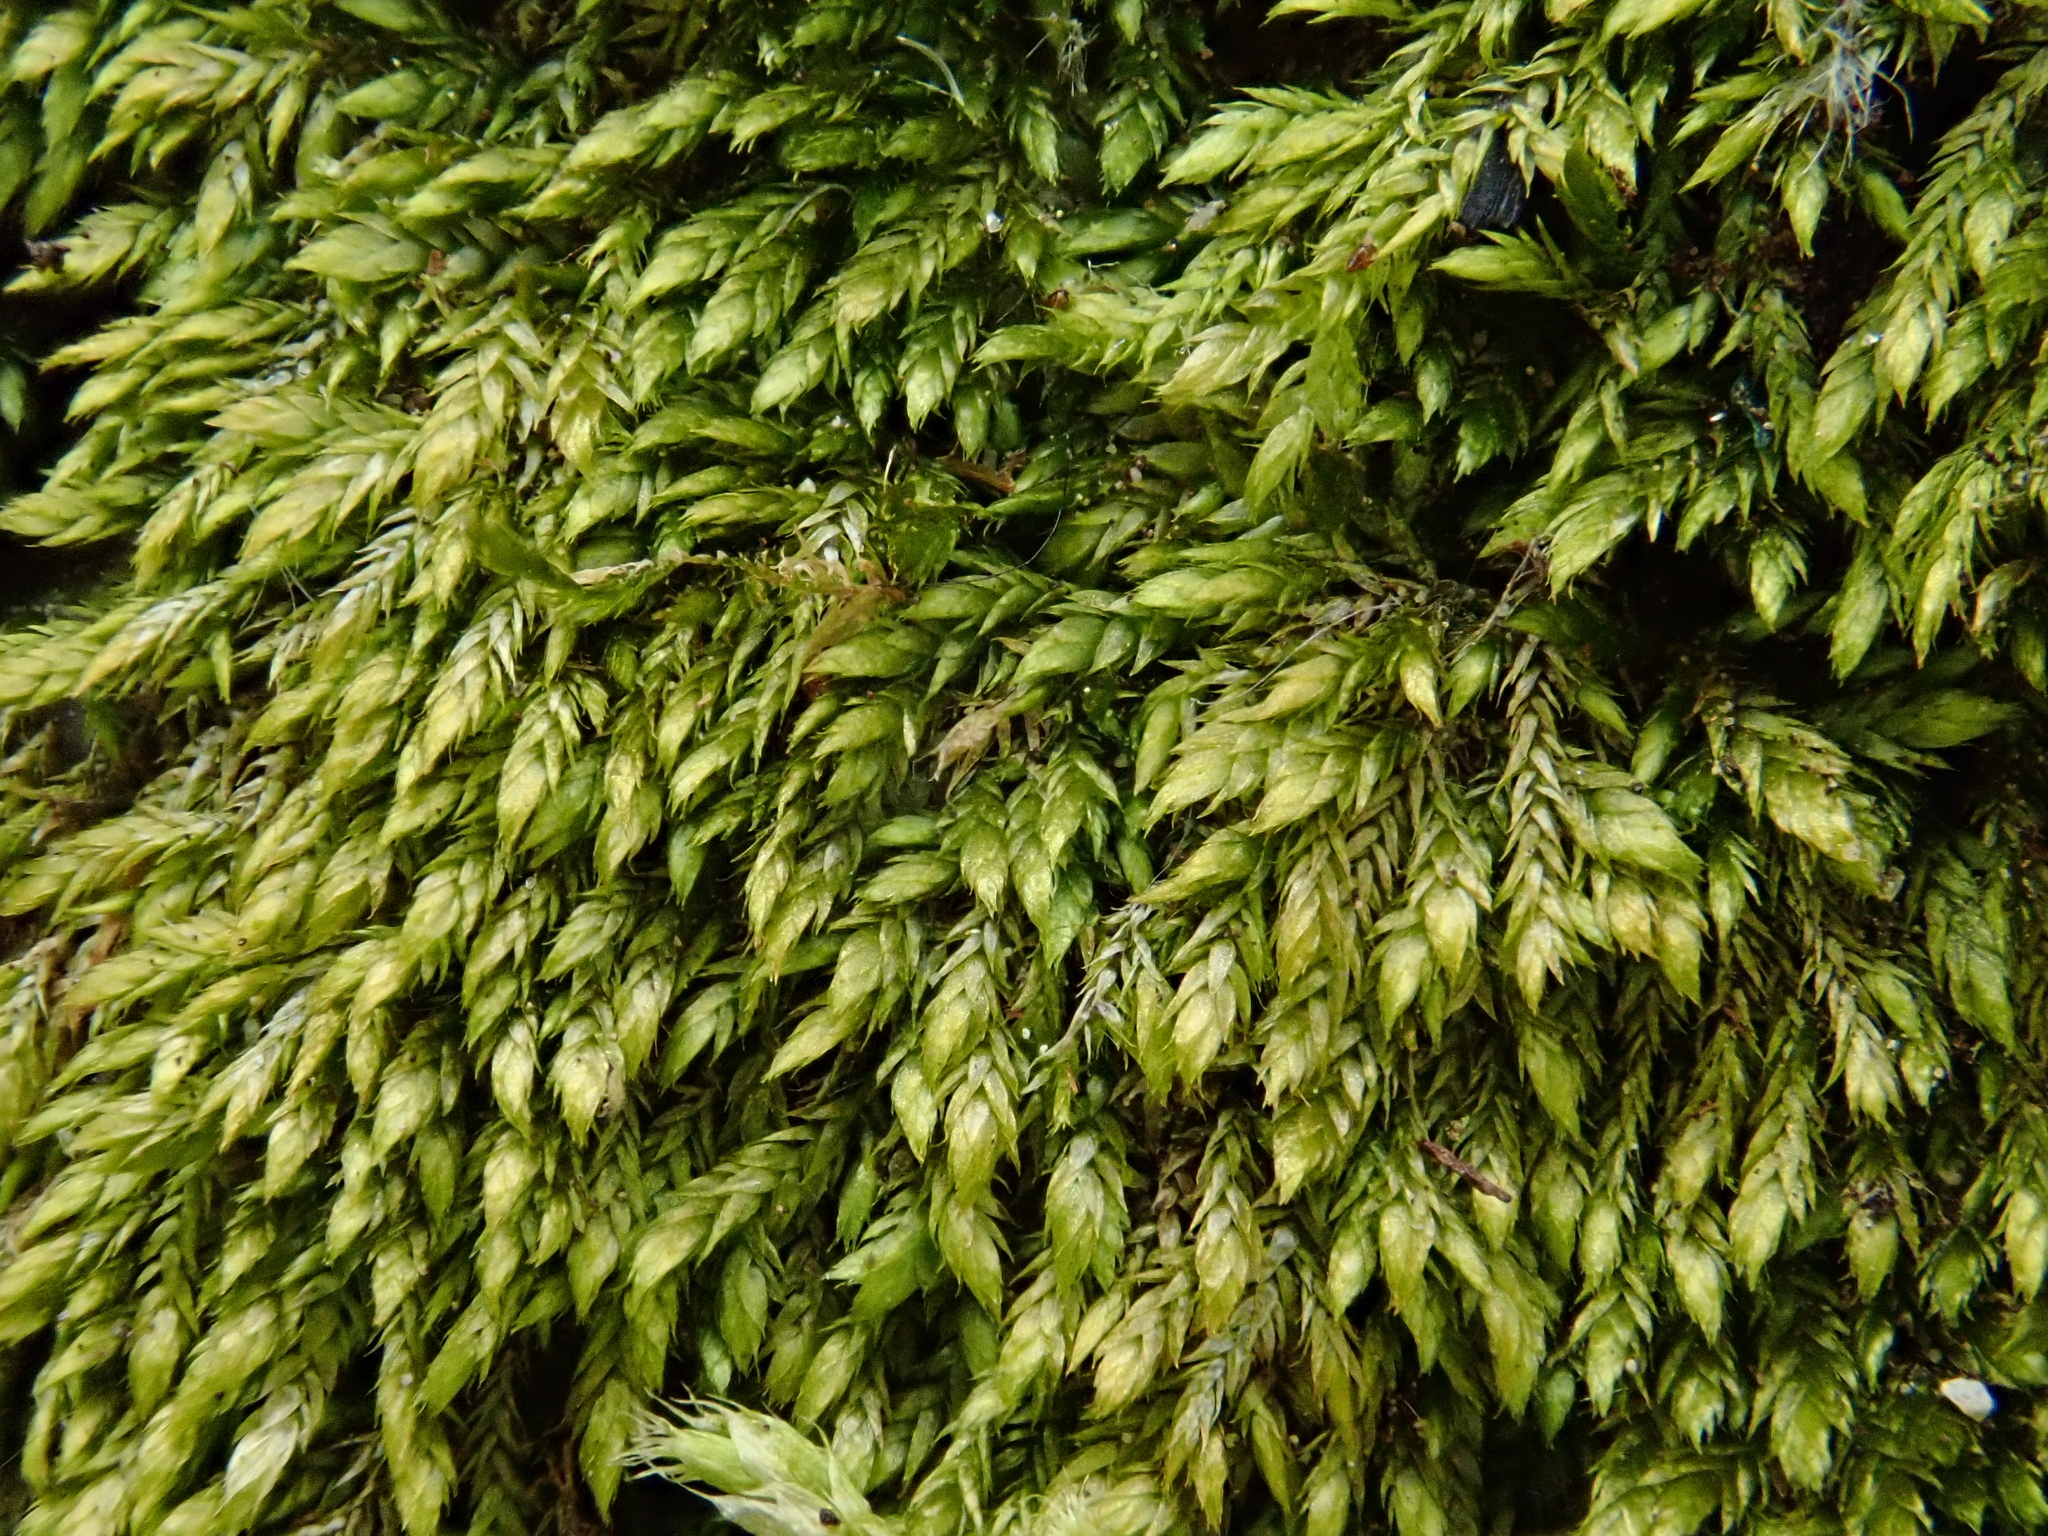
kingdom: Plantae
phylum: Bryophyta
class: Bryopsida
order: Hypnales
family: Taxiphyllaceae
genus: Taxiphyllum
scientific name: Taxiphyllum wissgrillii
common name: Depressed feather-moss
